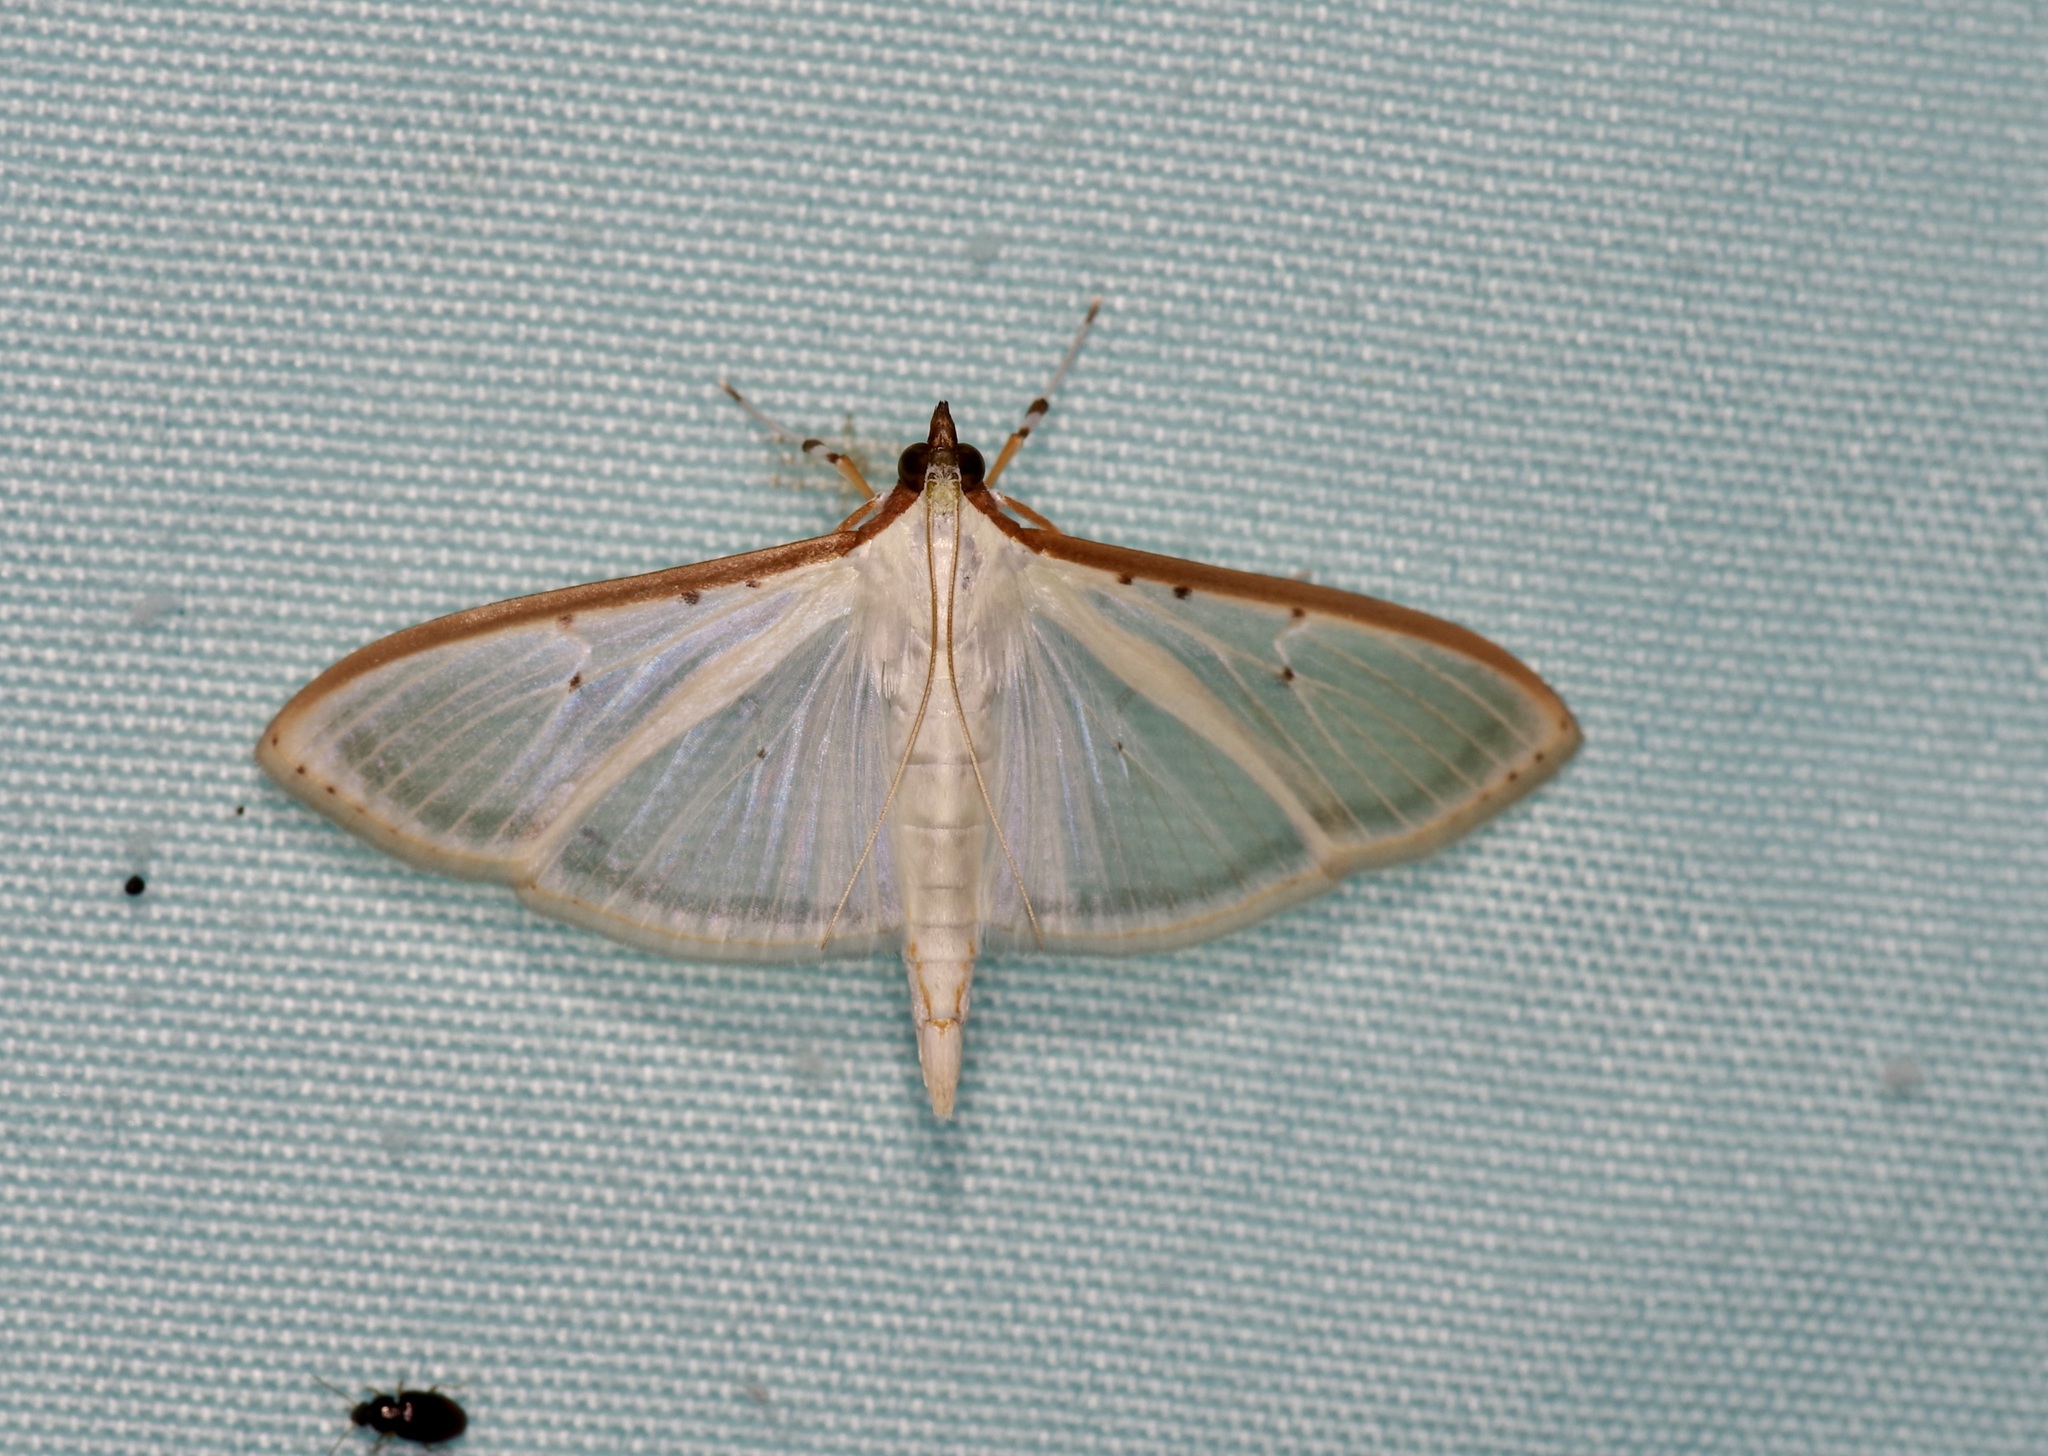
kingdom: Animalia
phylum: Arthropoda
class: Insecta
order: Lepidoptera
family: Crambidae
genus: Palpita
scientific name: Palpita quadristigmalis
